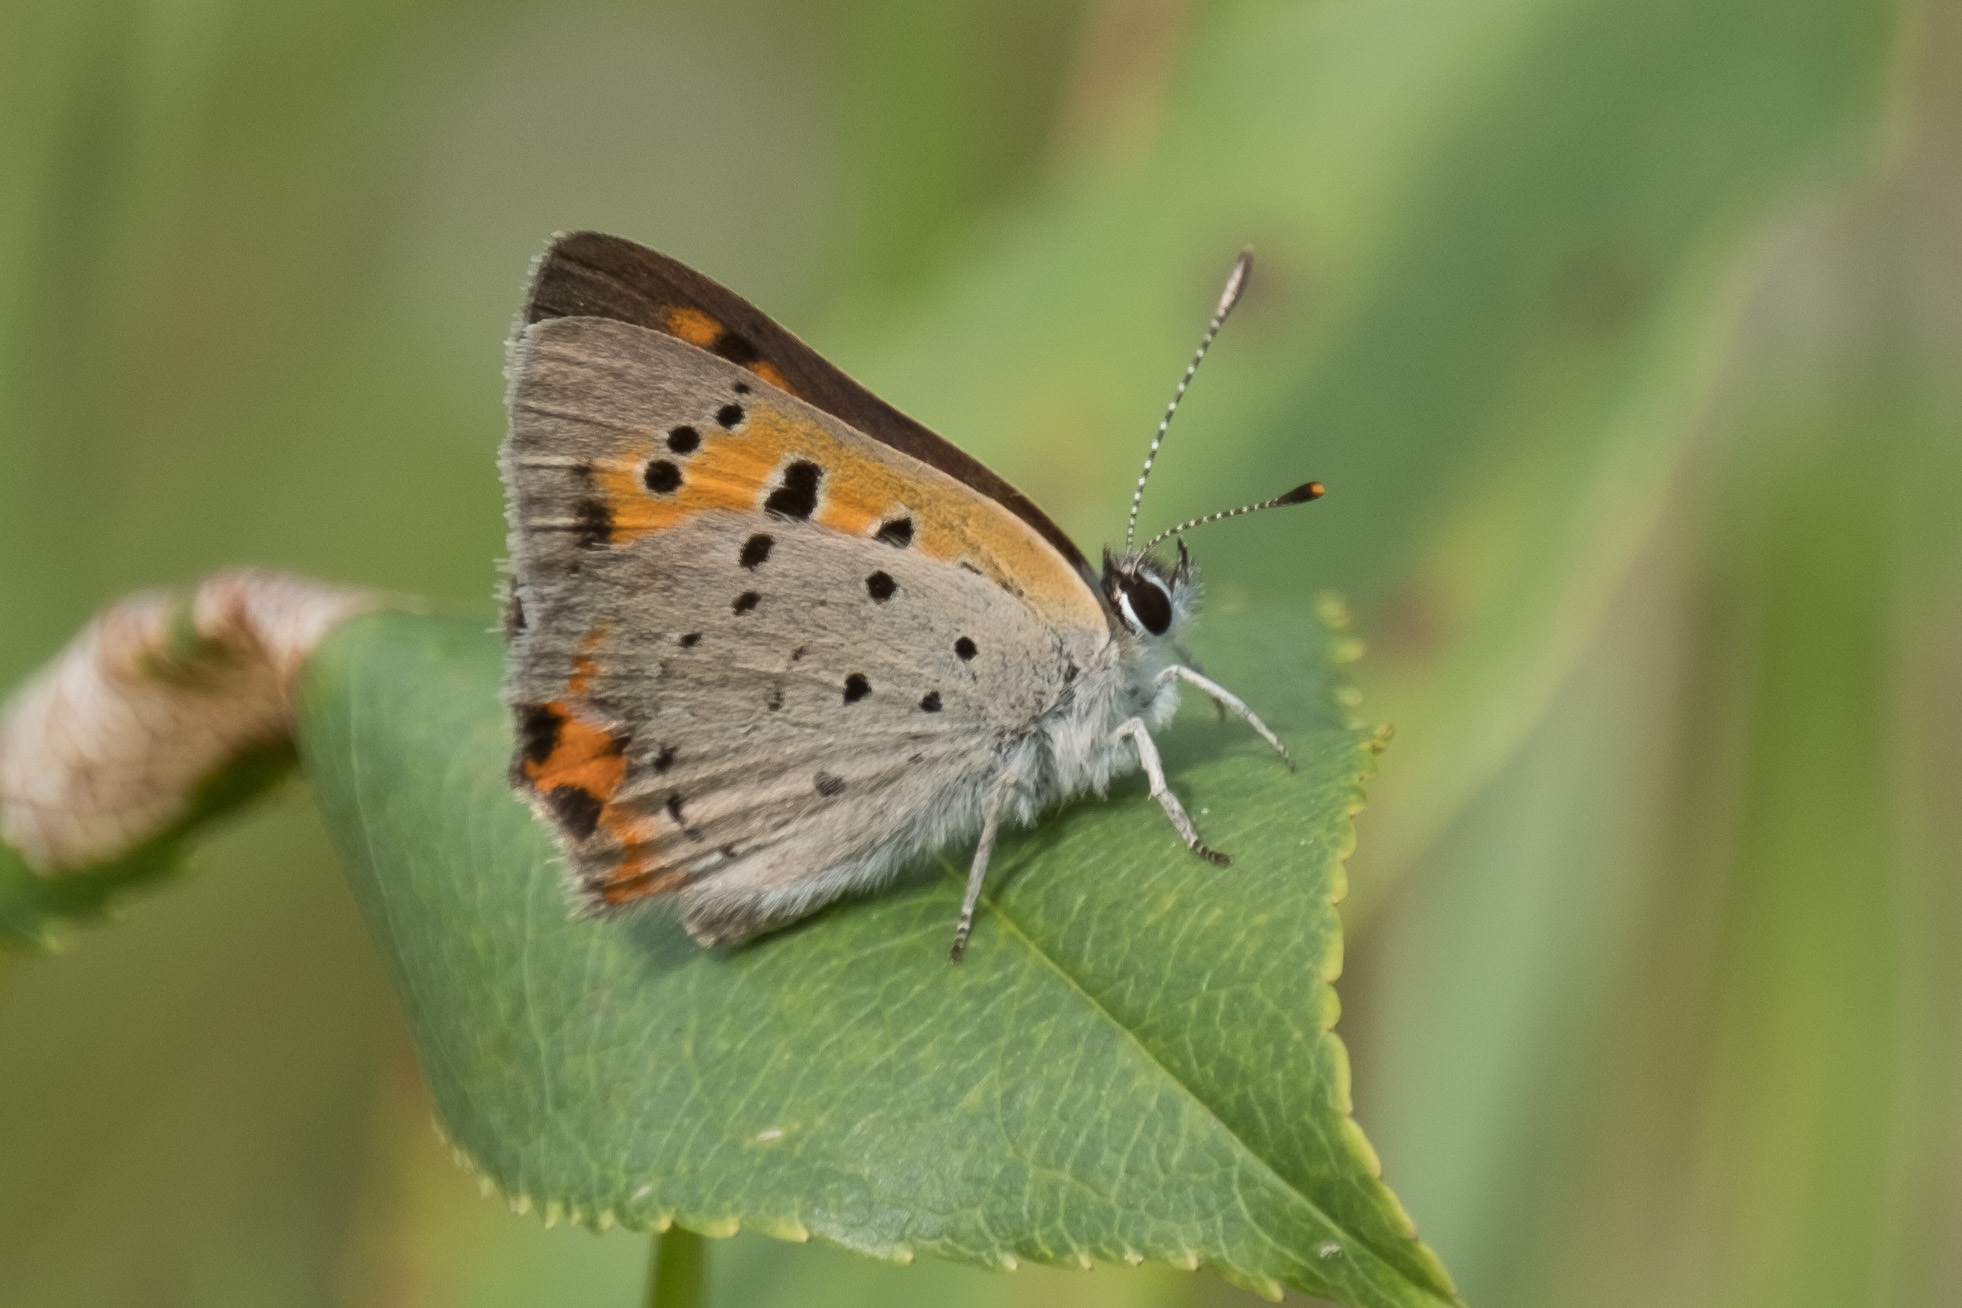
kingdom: Animalia
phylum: Arthropoda
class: Insecta
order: Lepidoptera
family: Lycaenidae
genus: Lycaena
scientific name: Lycaena hypophlaeas
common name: American copper
